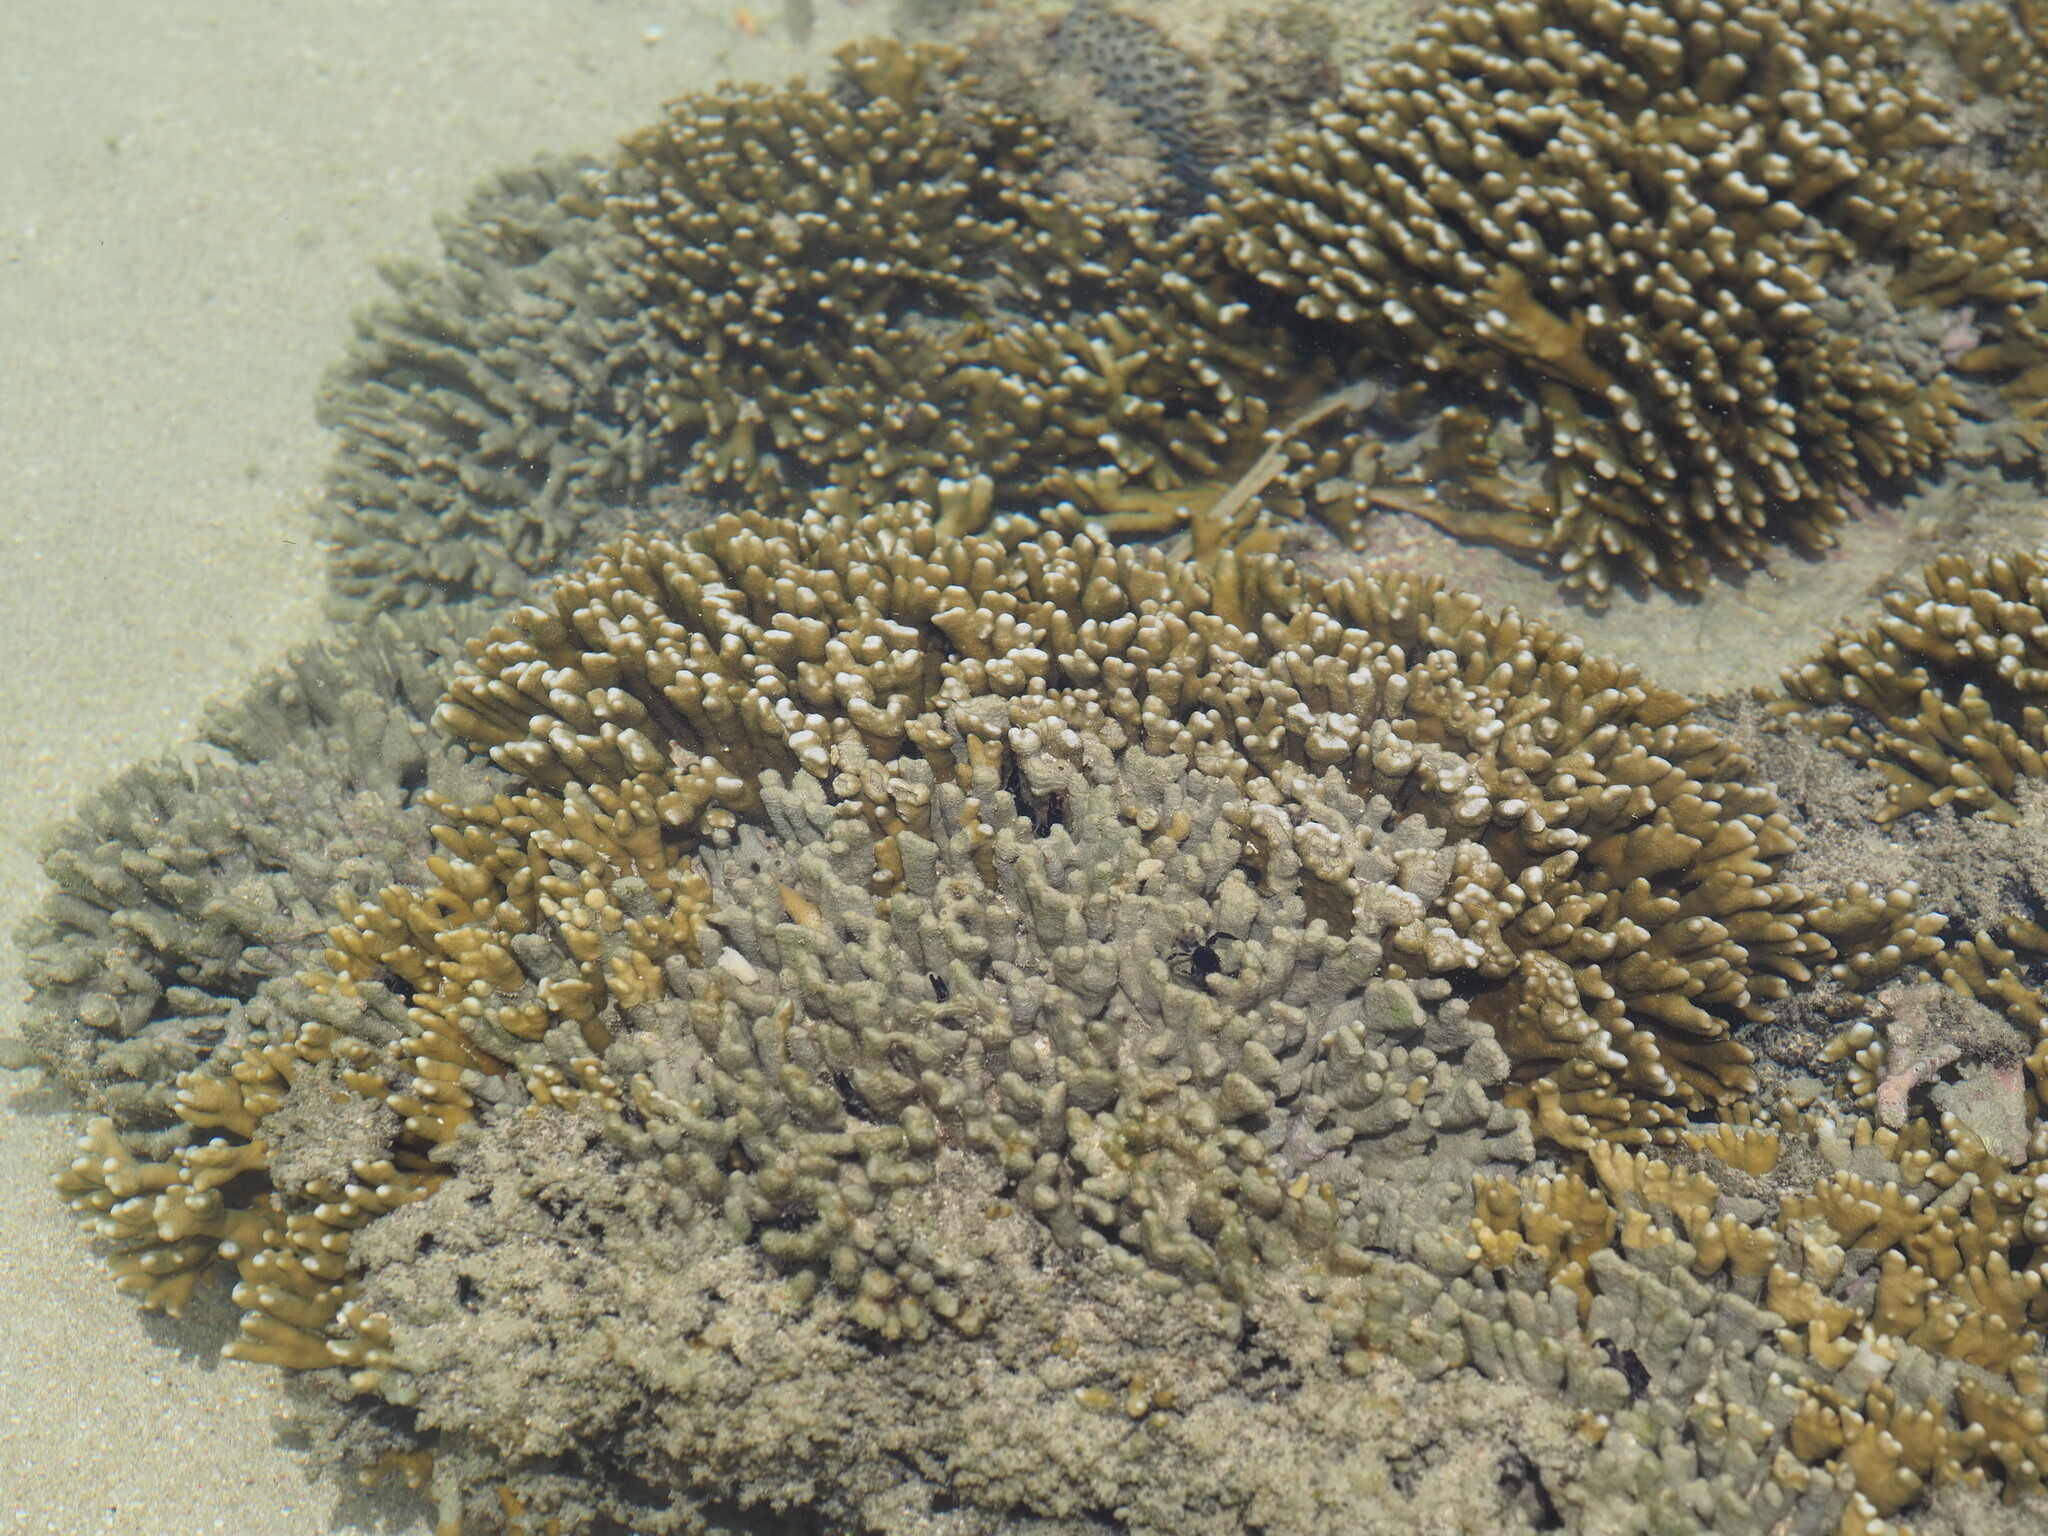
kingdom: Animalia
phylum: Cnidaria
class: Anthozoa
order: Scleractinia
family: Acroporidae
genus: Montipora
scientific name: Montipora digitata
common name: Pore coral
